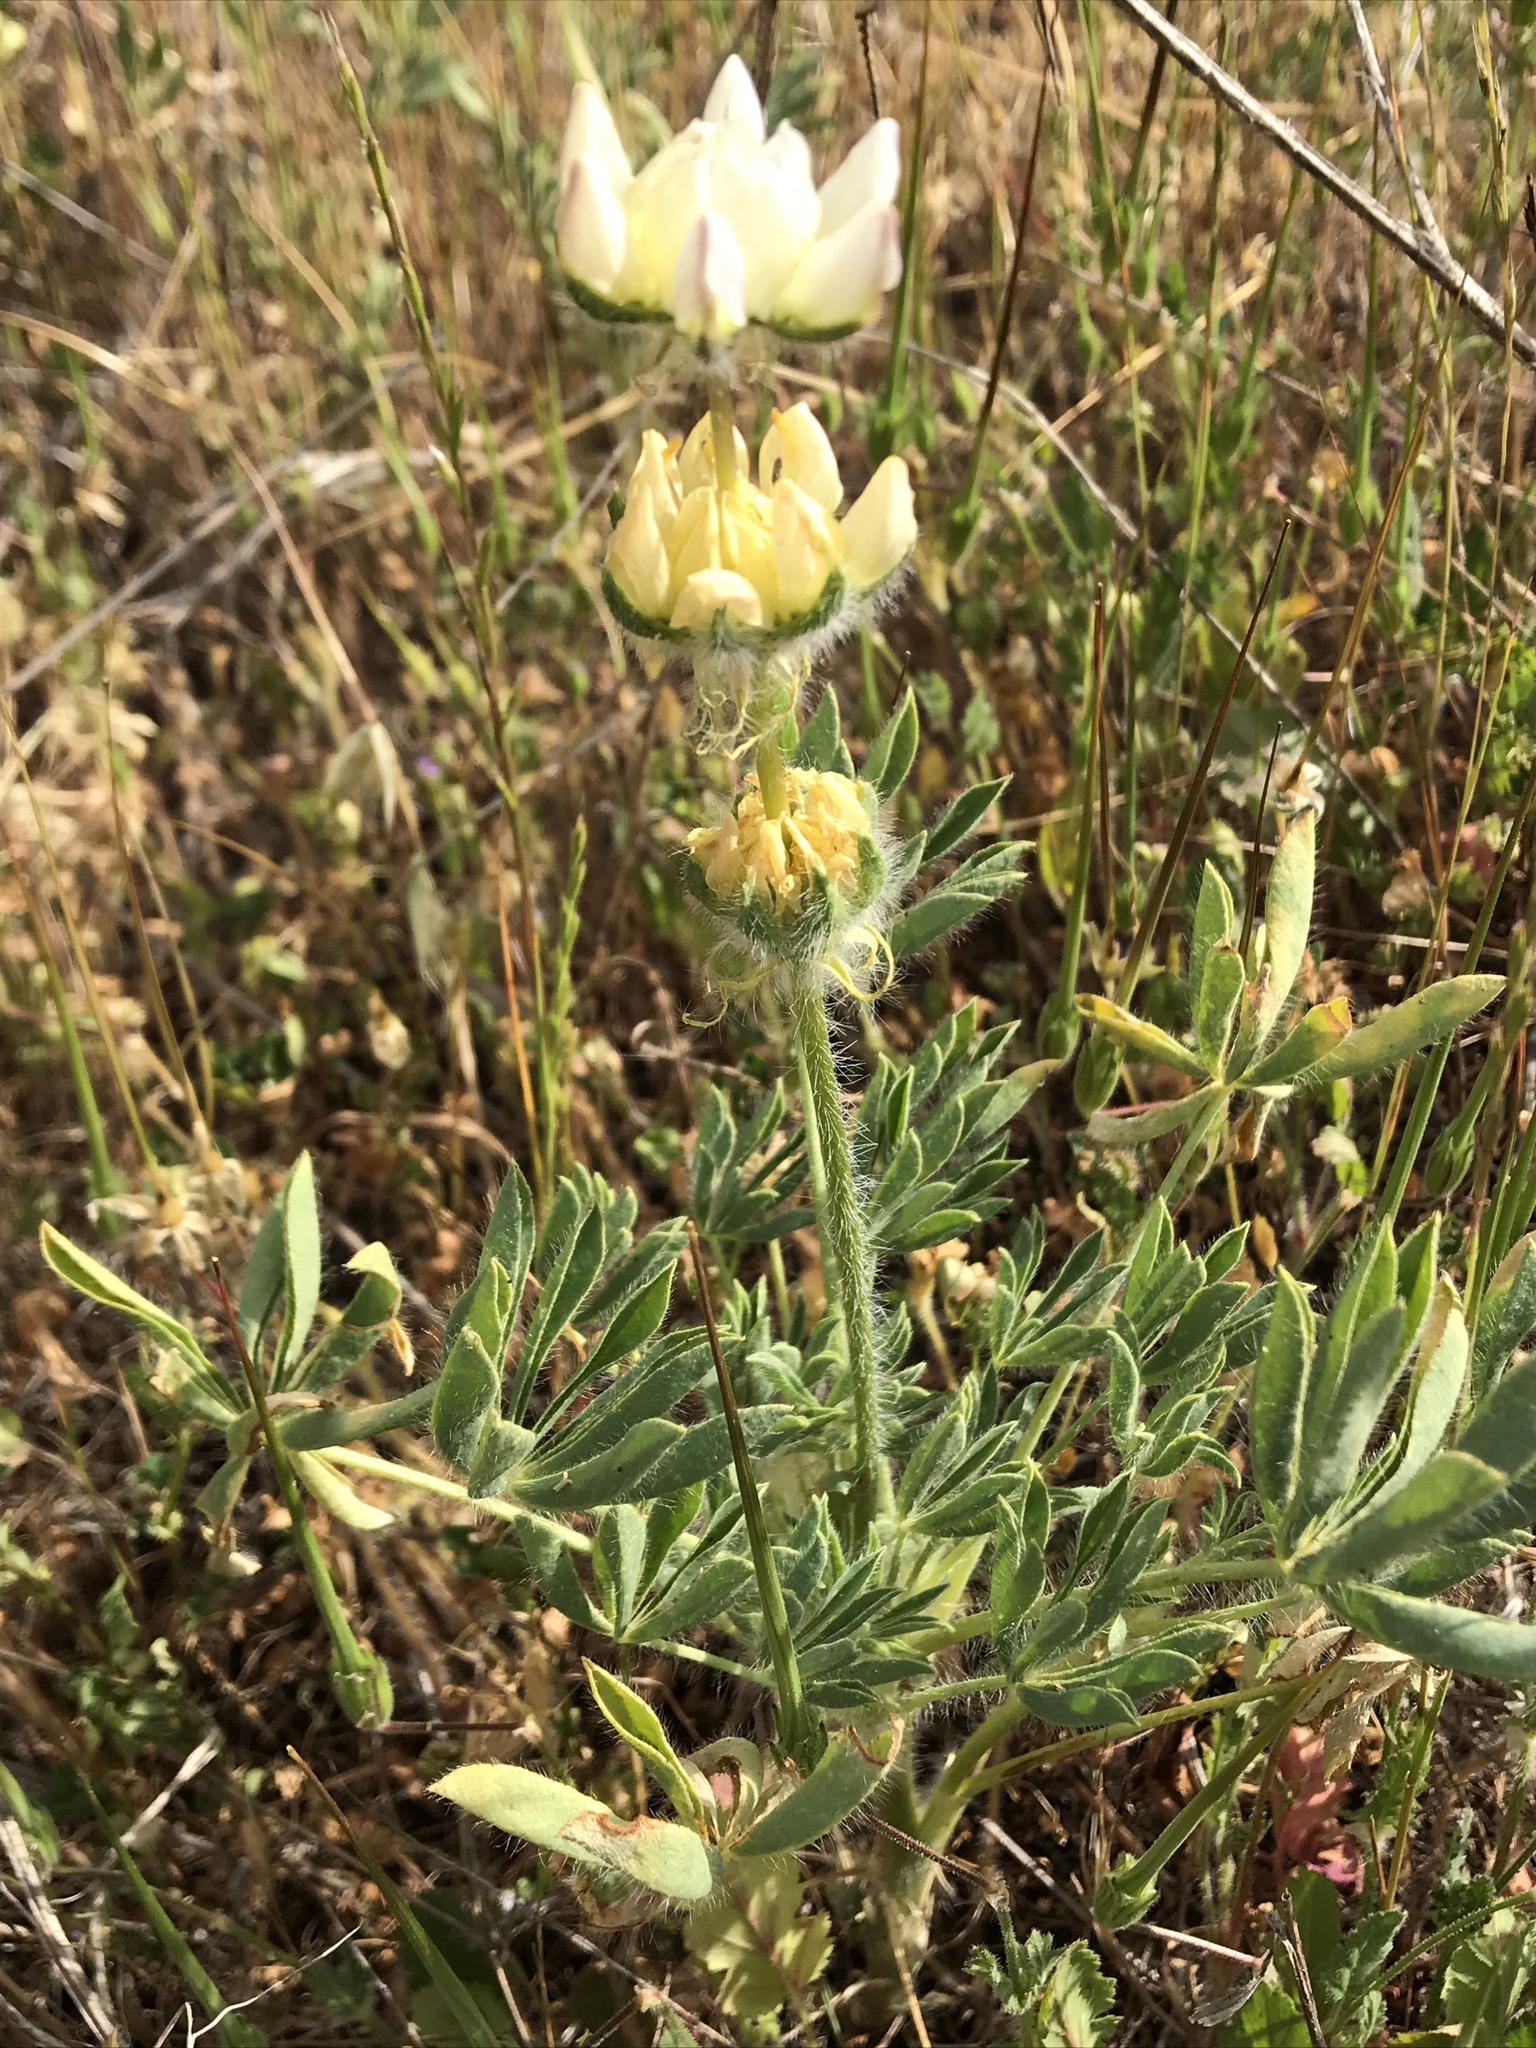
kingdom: Plantae
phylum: Tracheophyta
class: Magnoliopsida
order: Fabales
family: Fabaceae
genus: Lupinus
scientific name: Lupinus microcarpus
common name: Chick lupine
